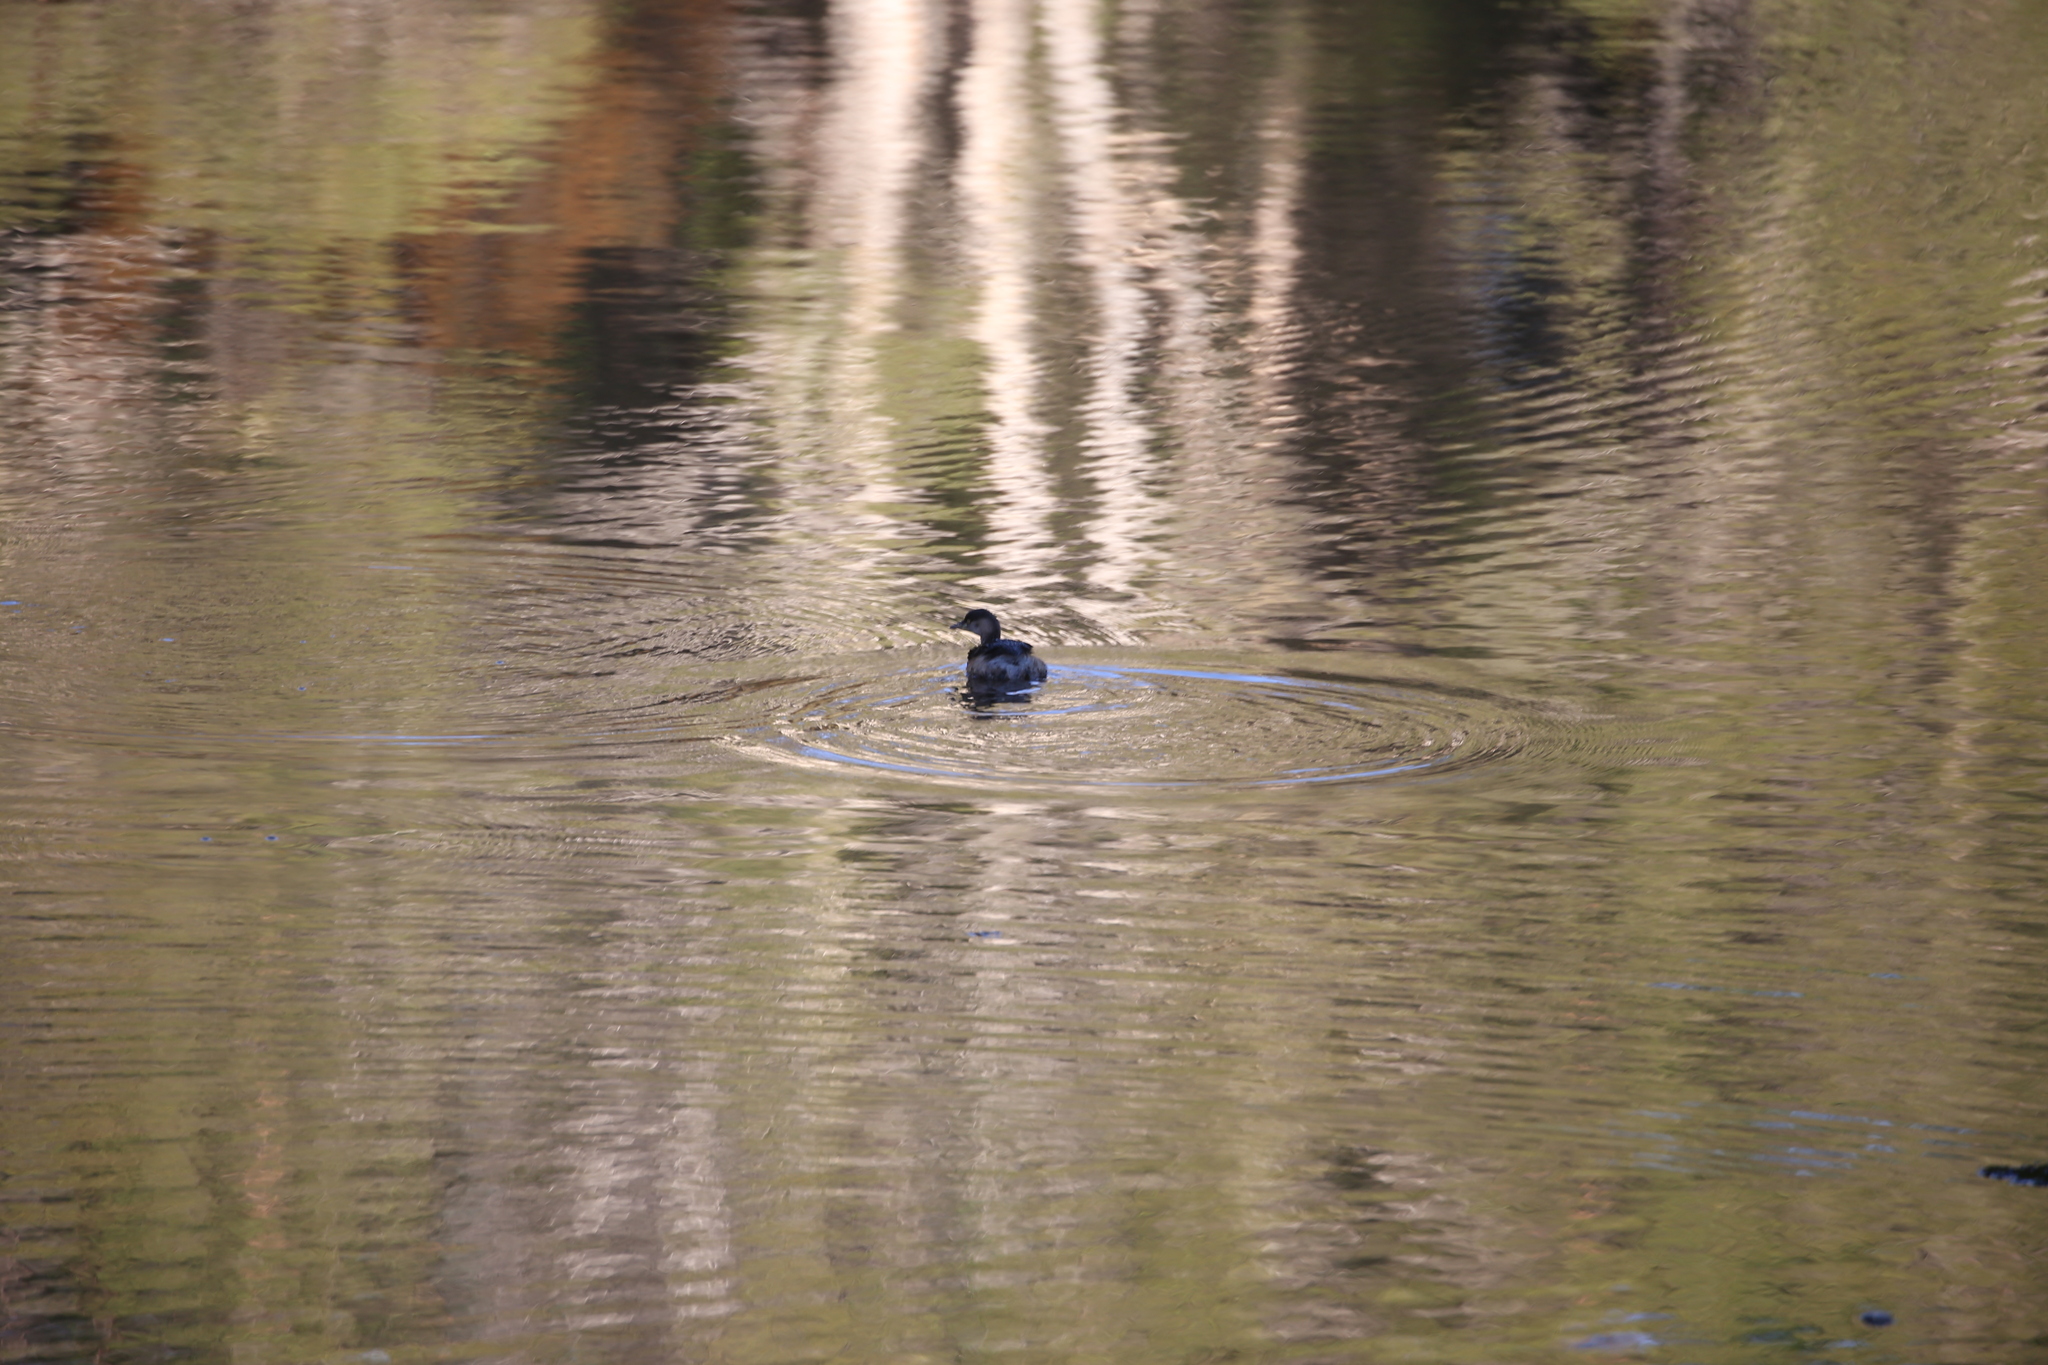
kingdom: Animalia
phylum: Chordata
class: Aves
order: Podicipediformes
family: Podicipedidae
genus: Tachybaptus
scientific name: Tachybaptus novaehollandiae
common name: Australasian grebe
